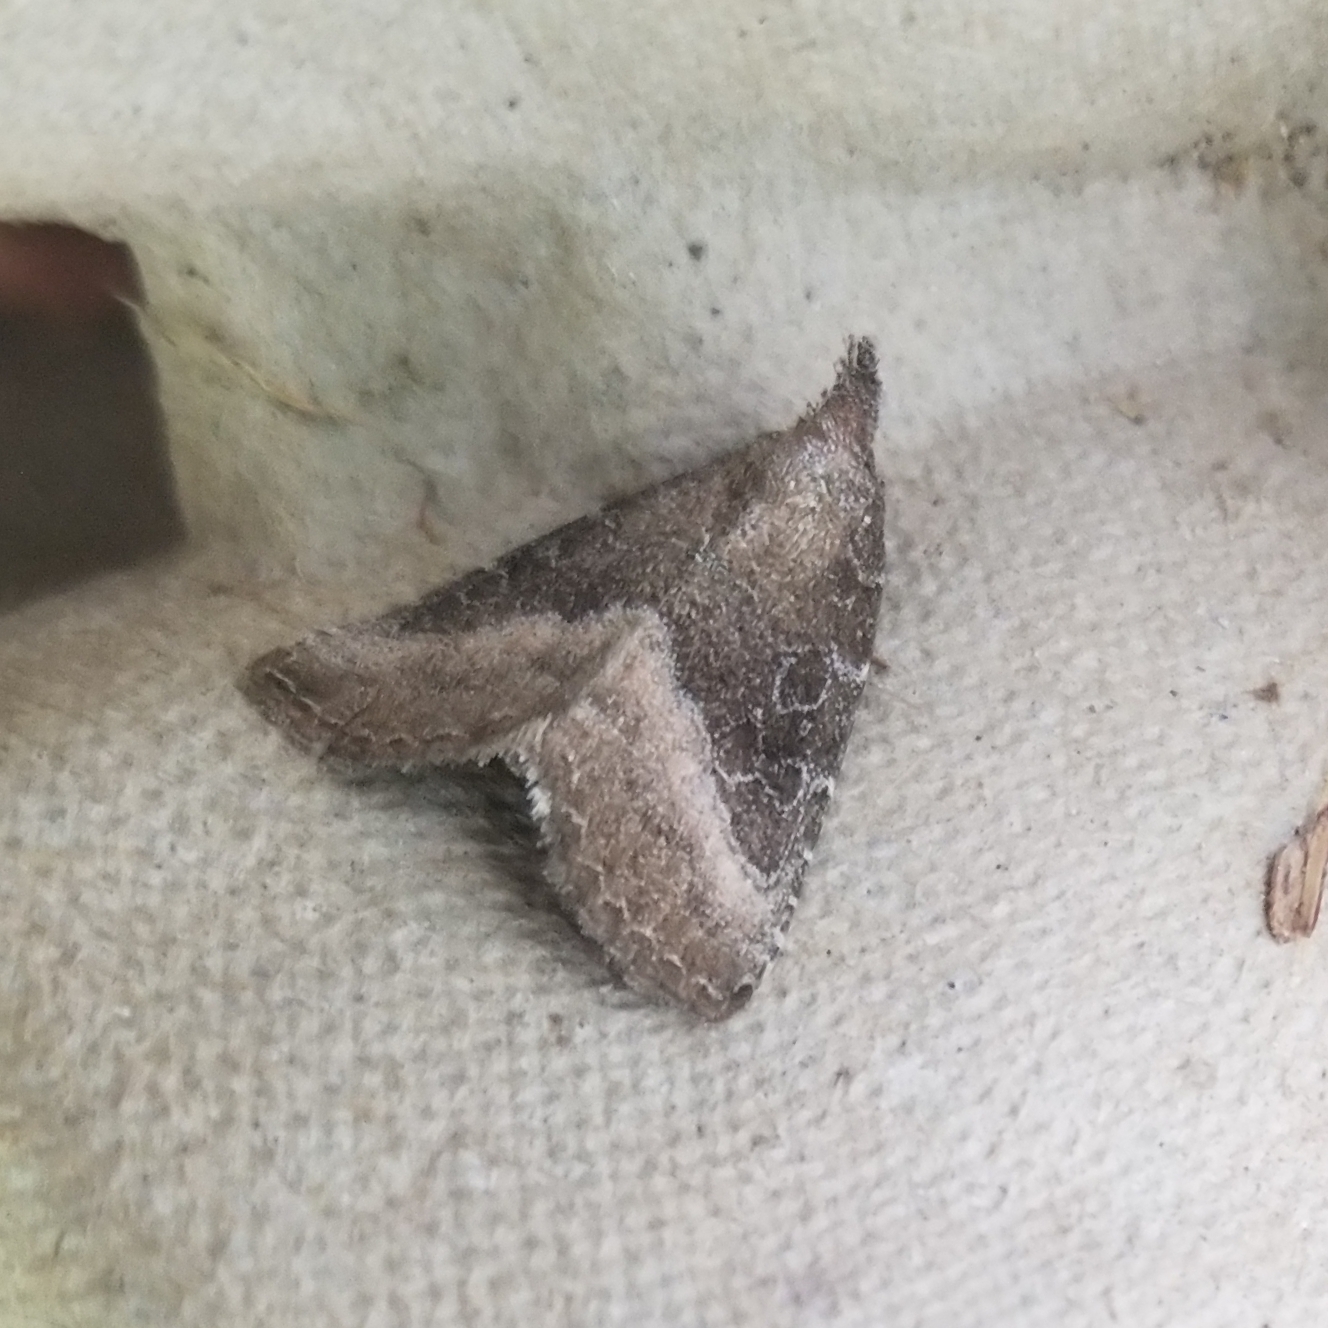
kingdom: Animalia
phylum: Arthropoda
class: Insecta
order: Lepidoptera
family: Noctuidae
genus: Ogdoconta
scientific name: Ogdoconta cinereola
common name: Common pinkband
